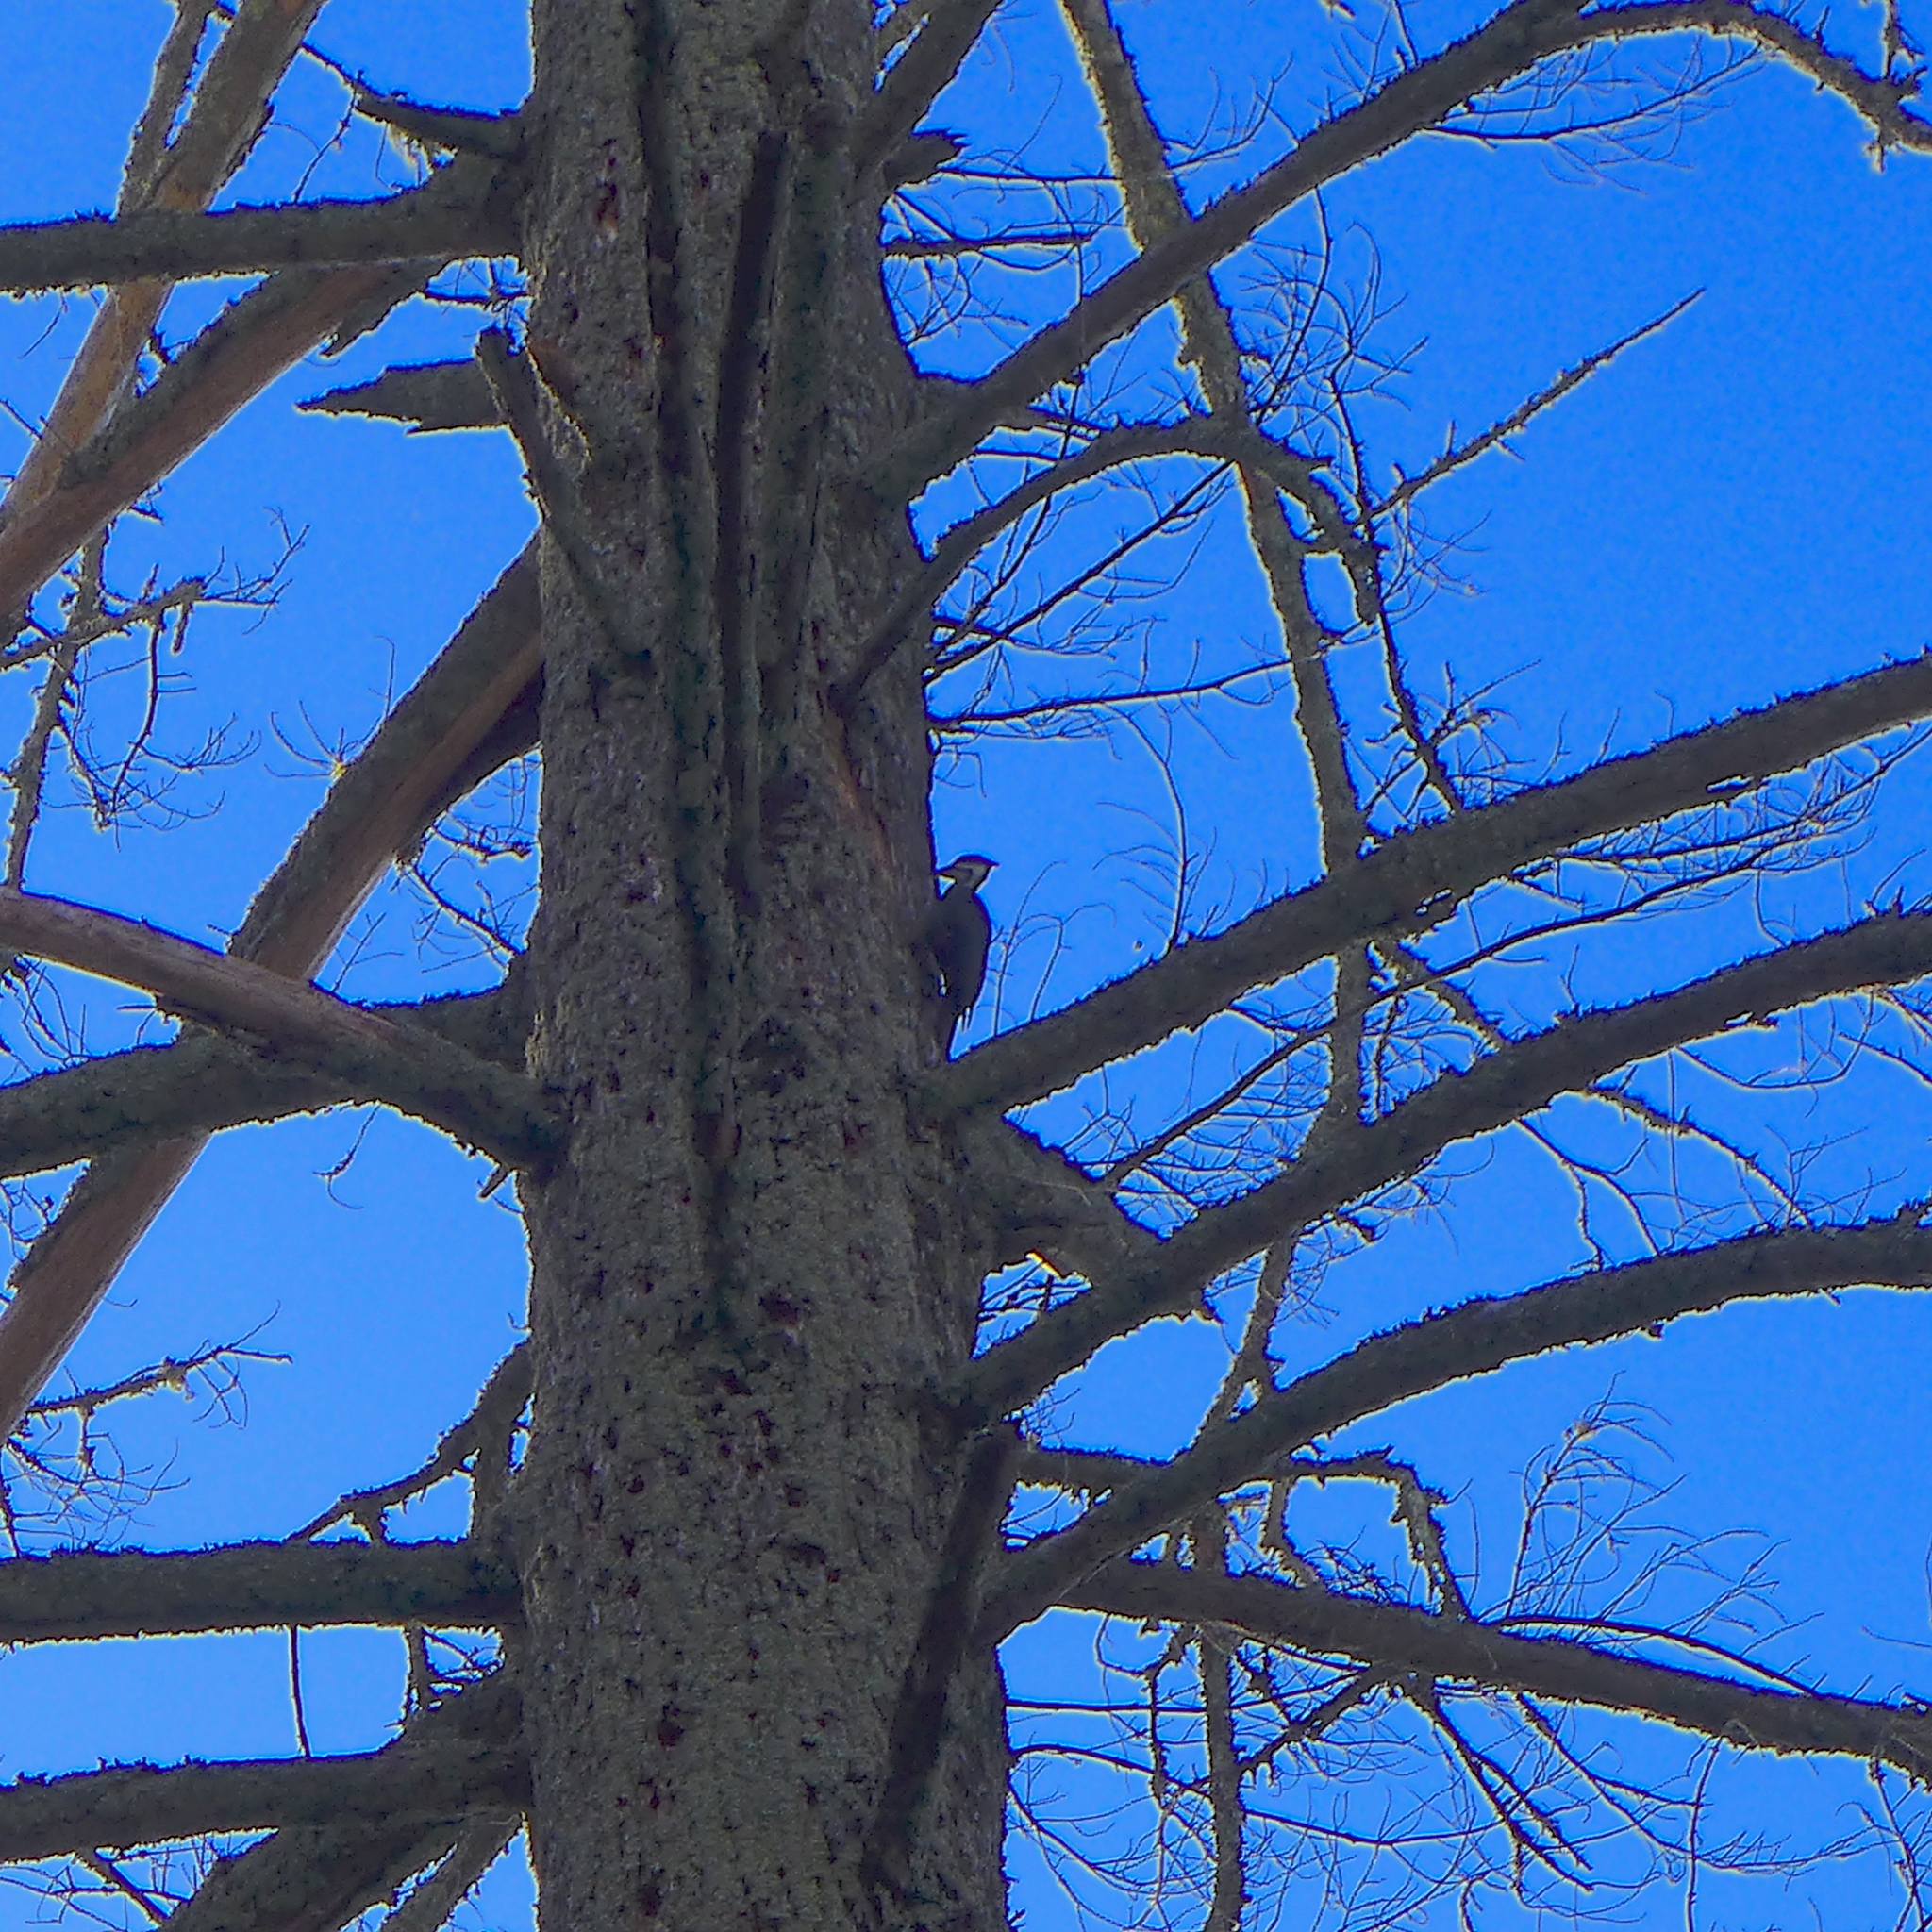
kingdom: Animalia
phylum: Chordata
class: Aves
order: Piciformes
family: Picidae
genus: Dryocopus
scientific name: Dryocopus pileatus
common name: Pileated woodpecker
